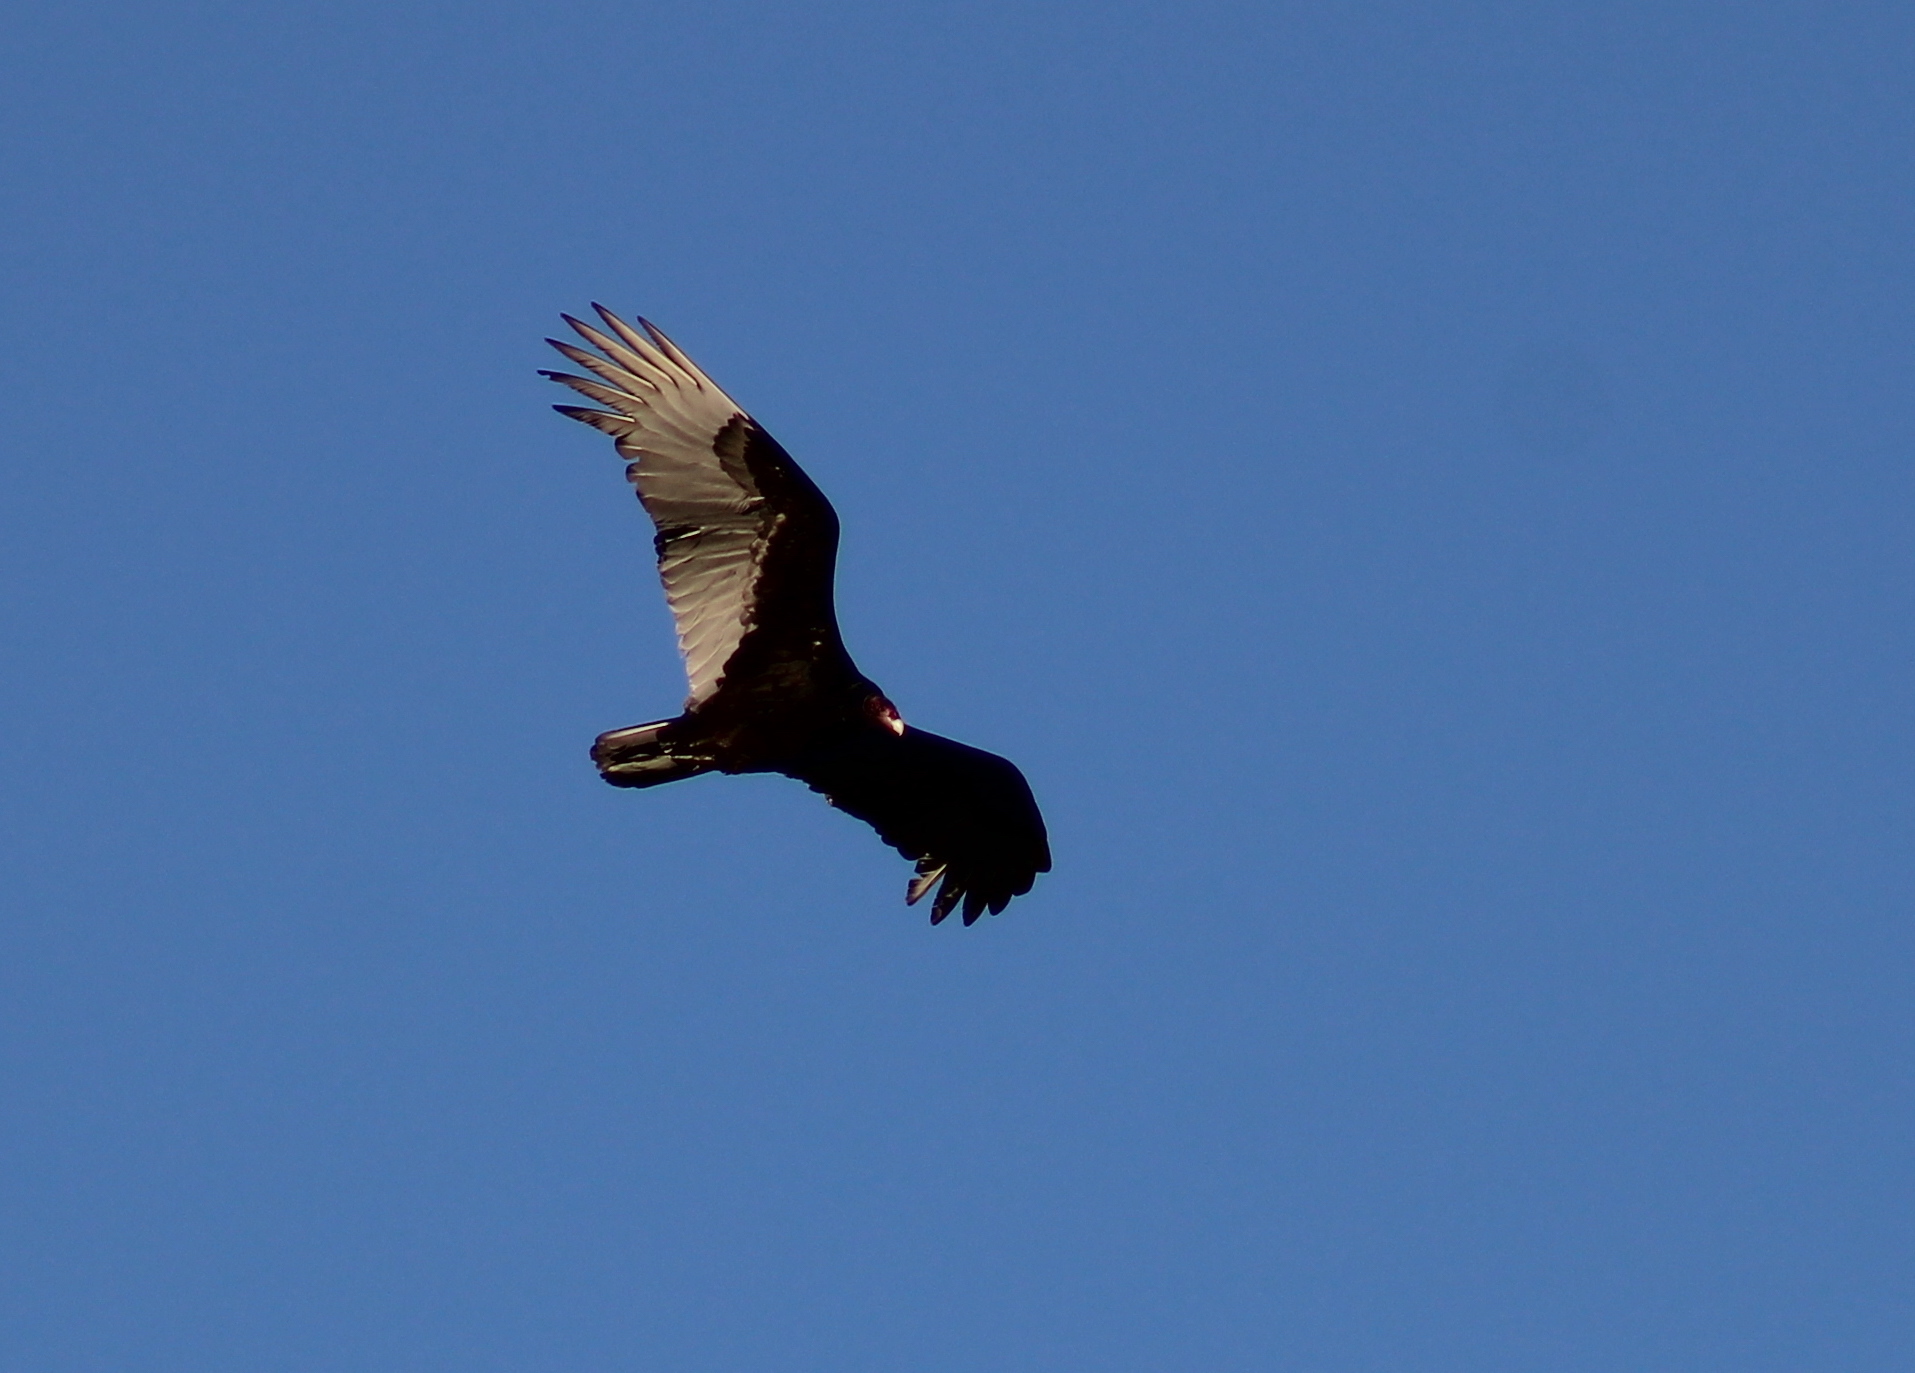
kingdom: Animalia
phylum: Chordata
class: Aves
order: Accipitriformes
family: Cathartidae
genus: Cathartes
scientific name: Cathartes aura
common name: Turkey vulture
